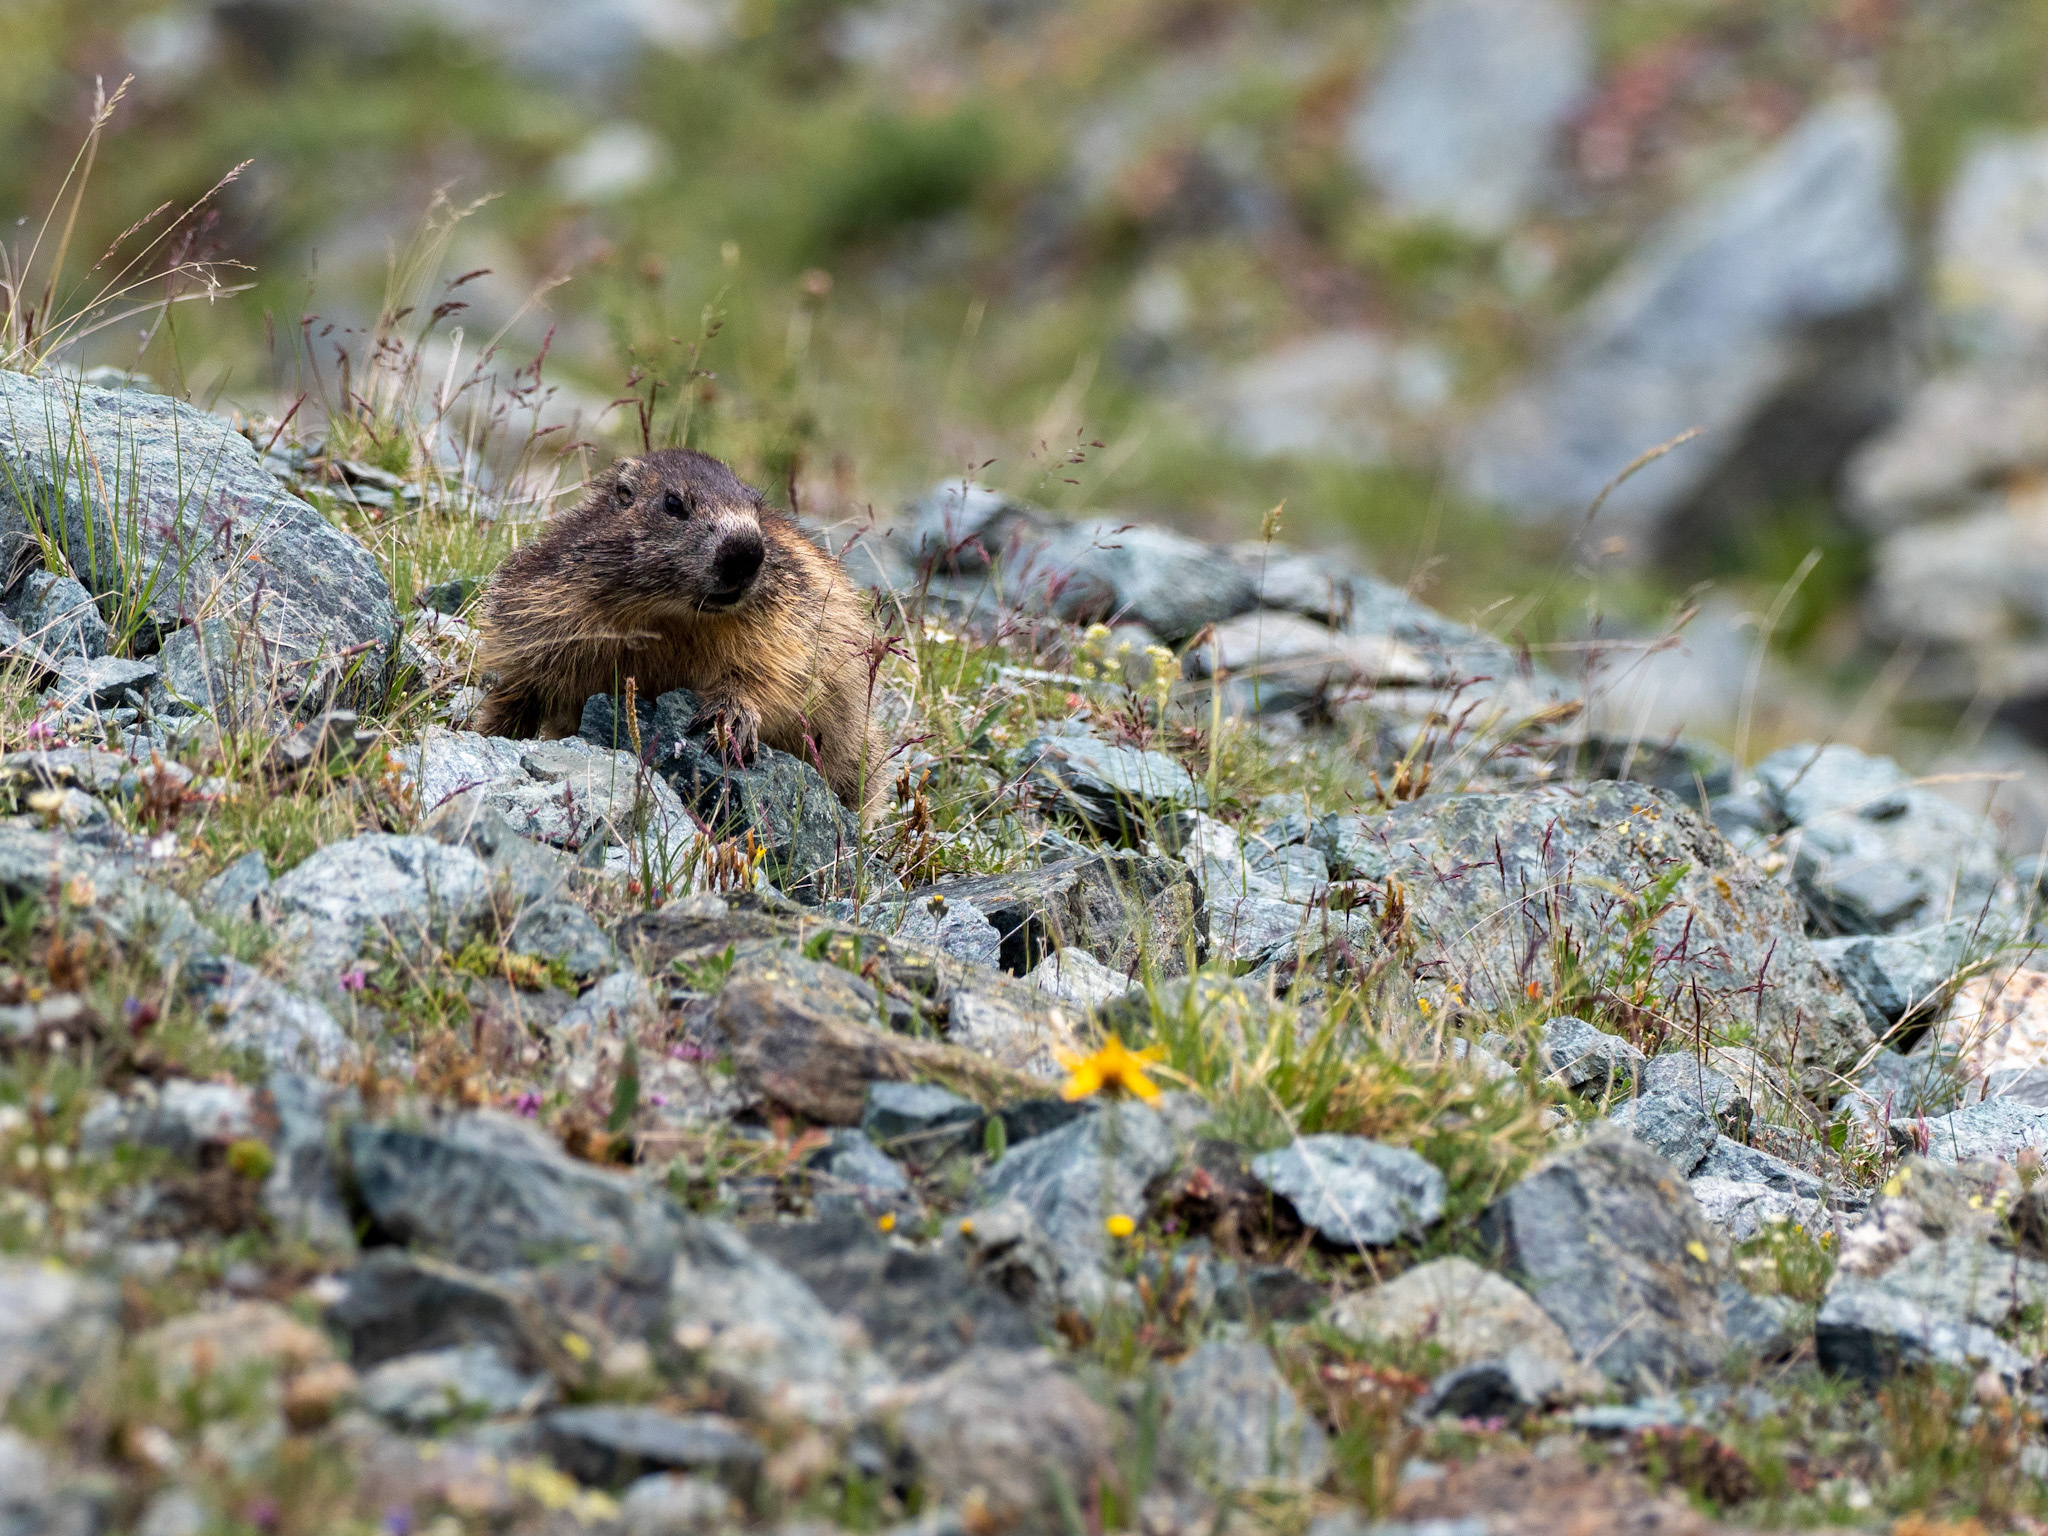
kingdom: Animalia
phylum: Chordata
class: Mammalia
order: Rodentia
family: Sciuridae
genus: Marmota
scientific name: Marmota marmota
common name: Alpine marmot
